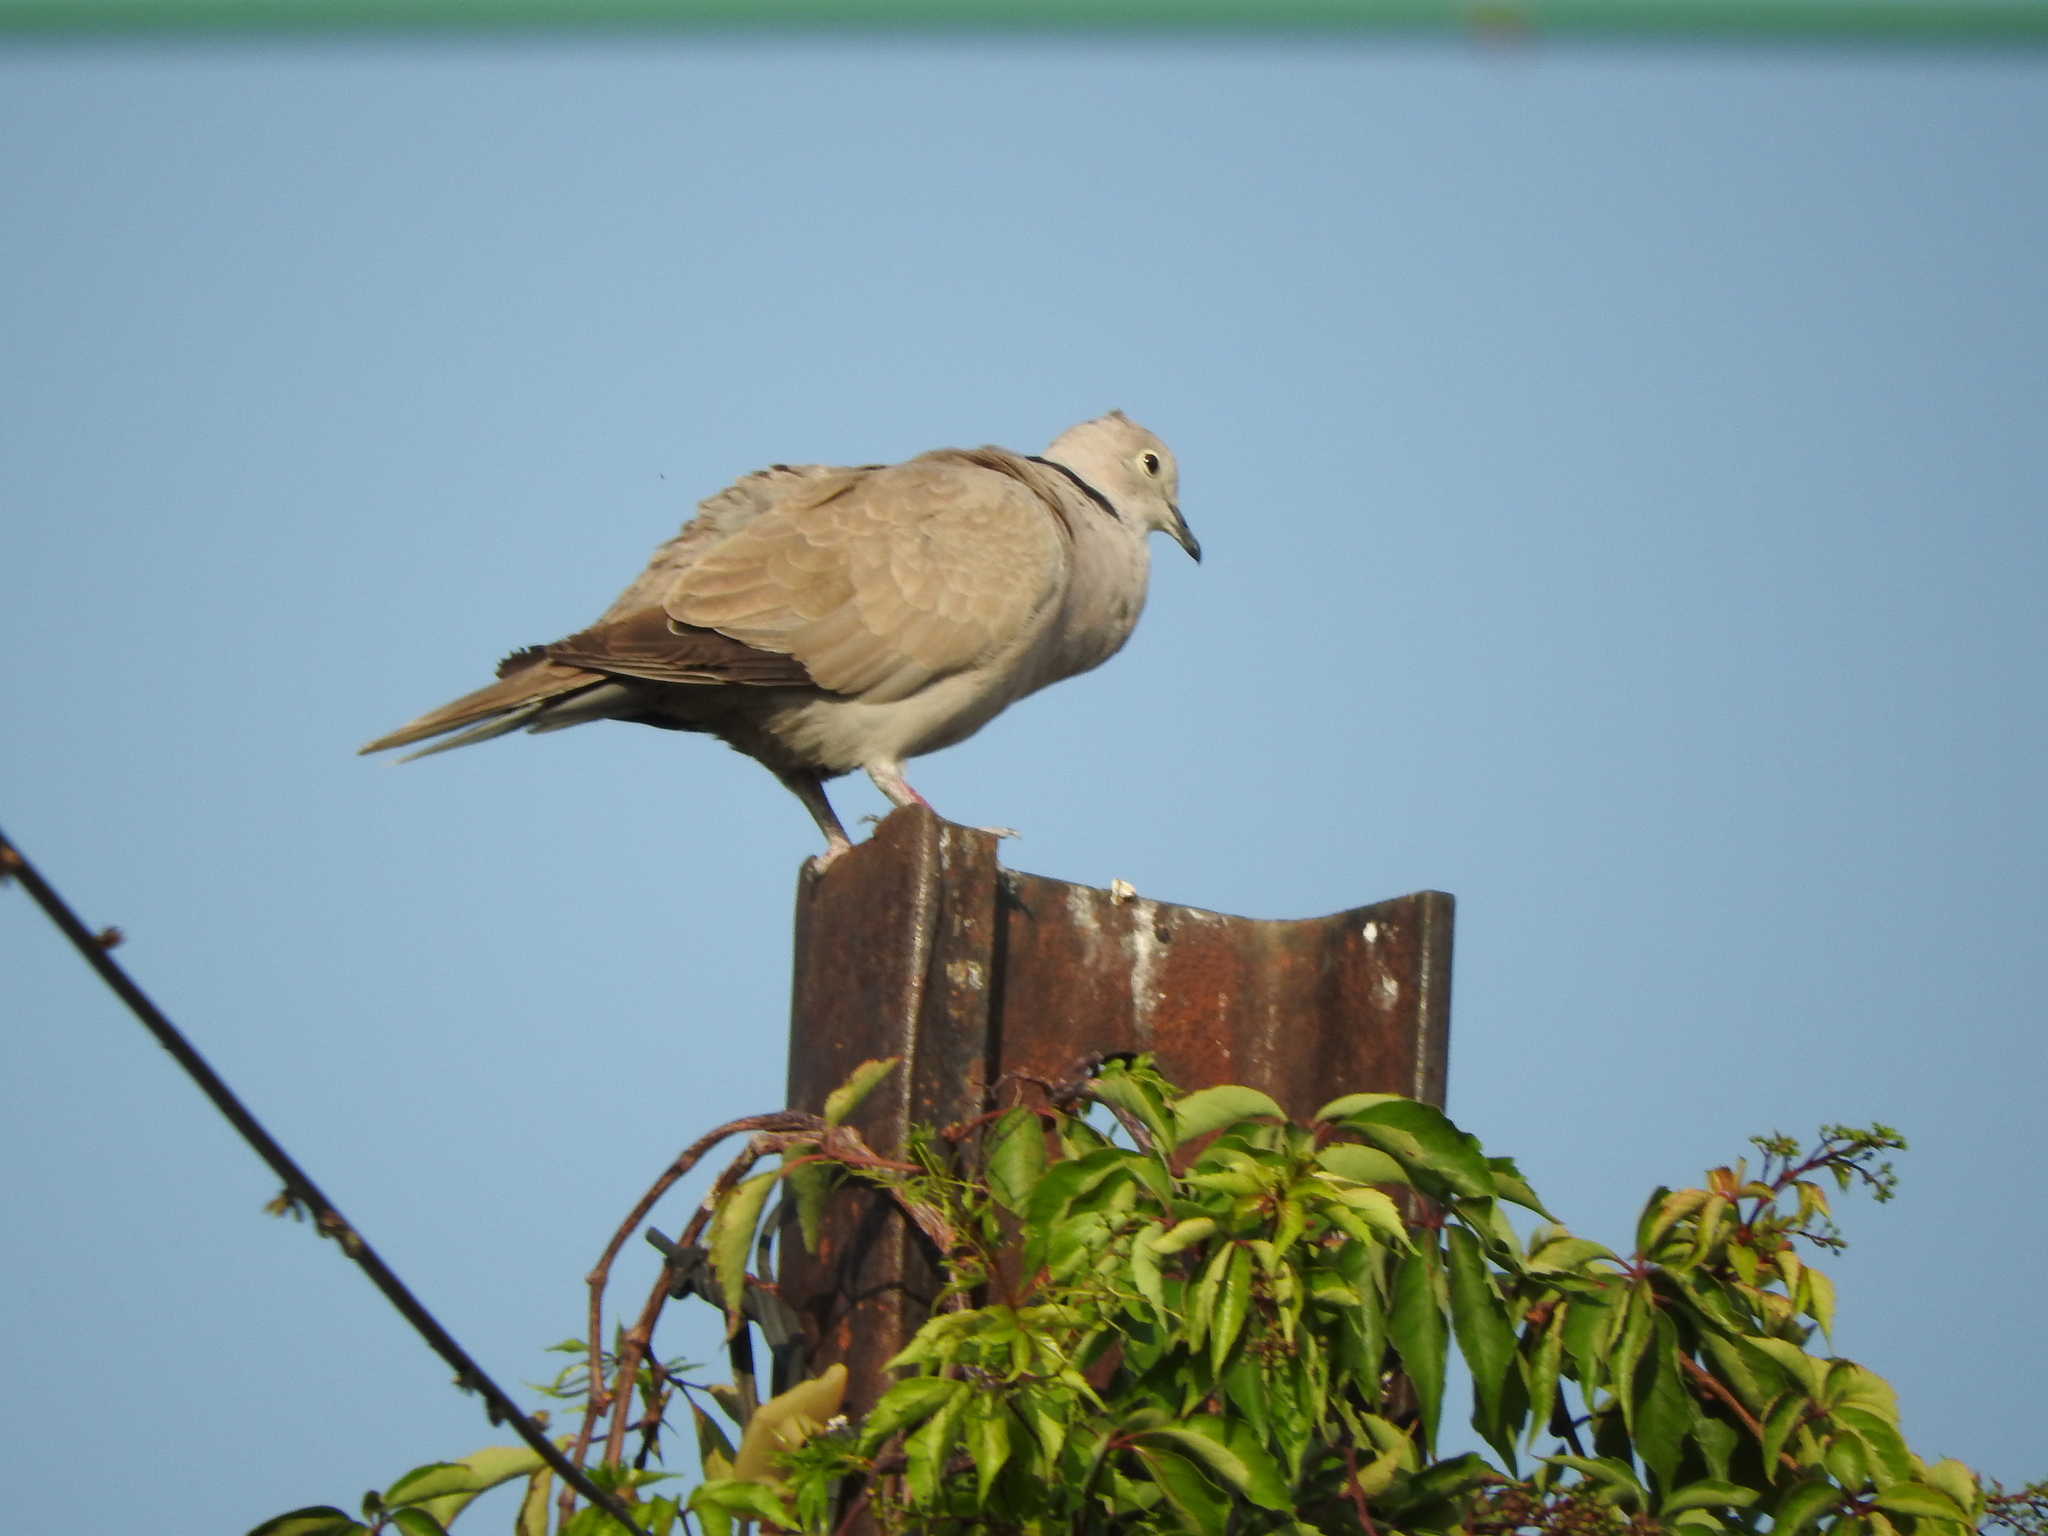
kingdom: Animalia
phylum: Chordata
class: Aves
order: Columbiformes
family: Columbidae
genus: Streptopelia
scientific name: Streptopelia decaocto
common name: Eurasian collared dove
